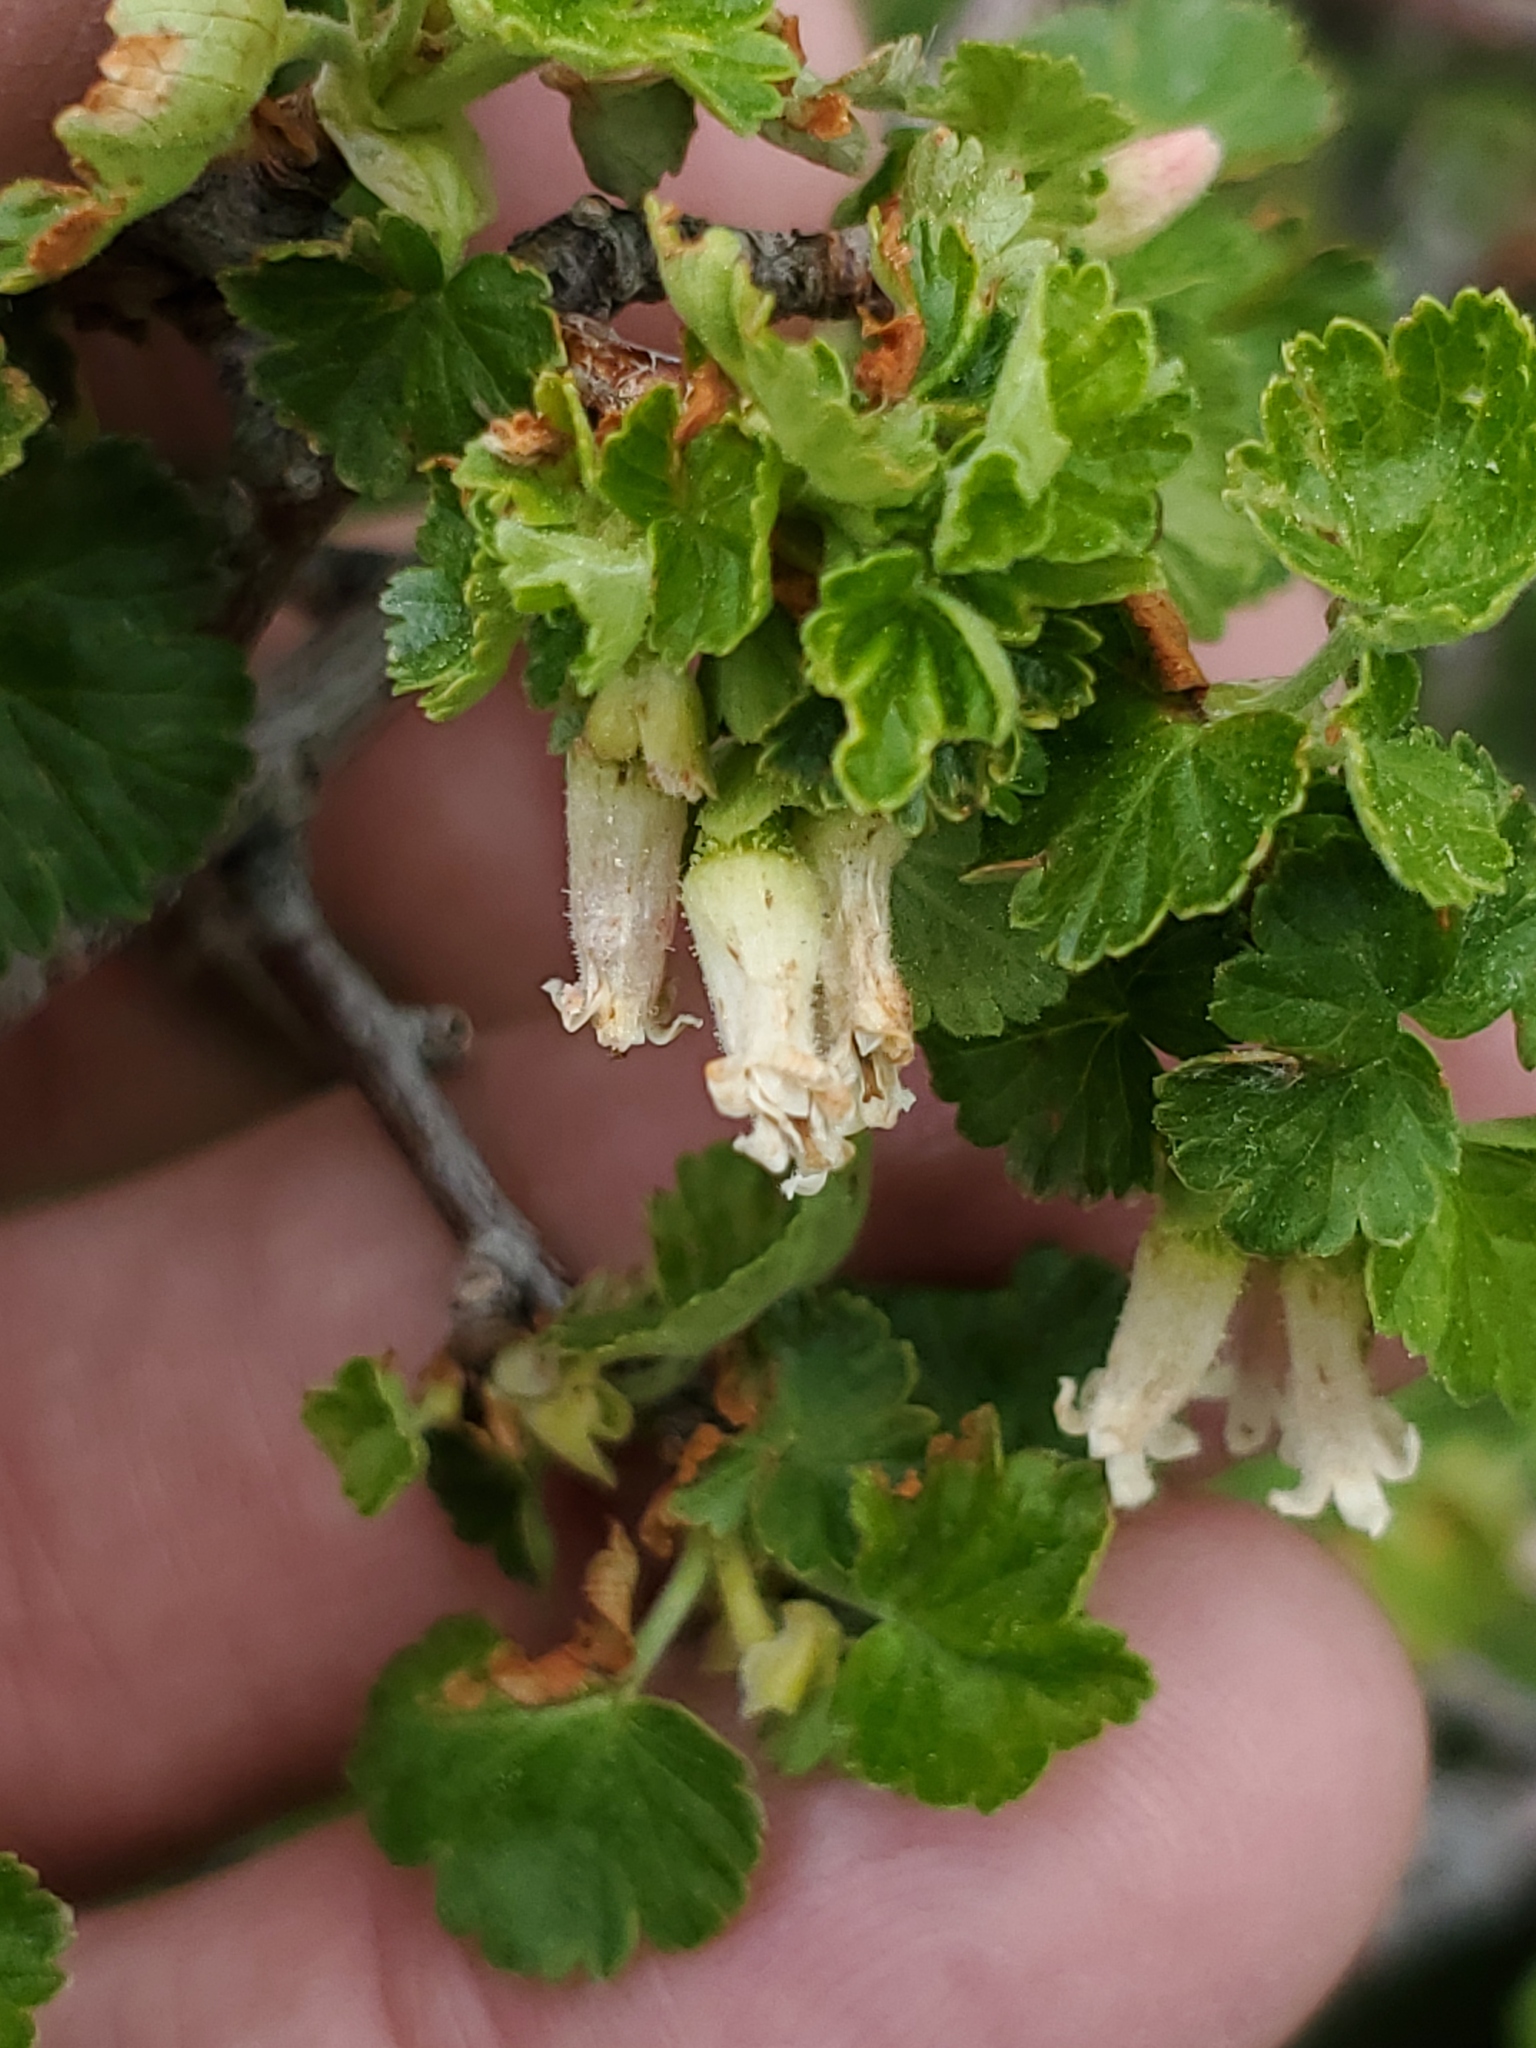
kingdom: Plantae
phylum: Tracheophyta
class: Magnoliopsida
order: Saxifragales
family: Grossulariaceae
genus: Ribes
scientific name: Ribes cereum
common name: Wax currant
